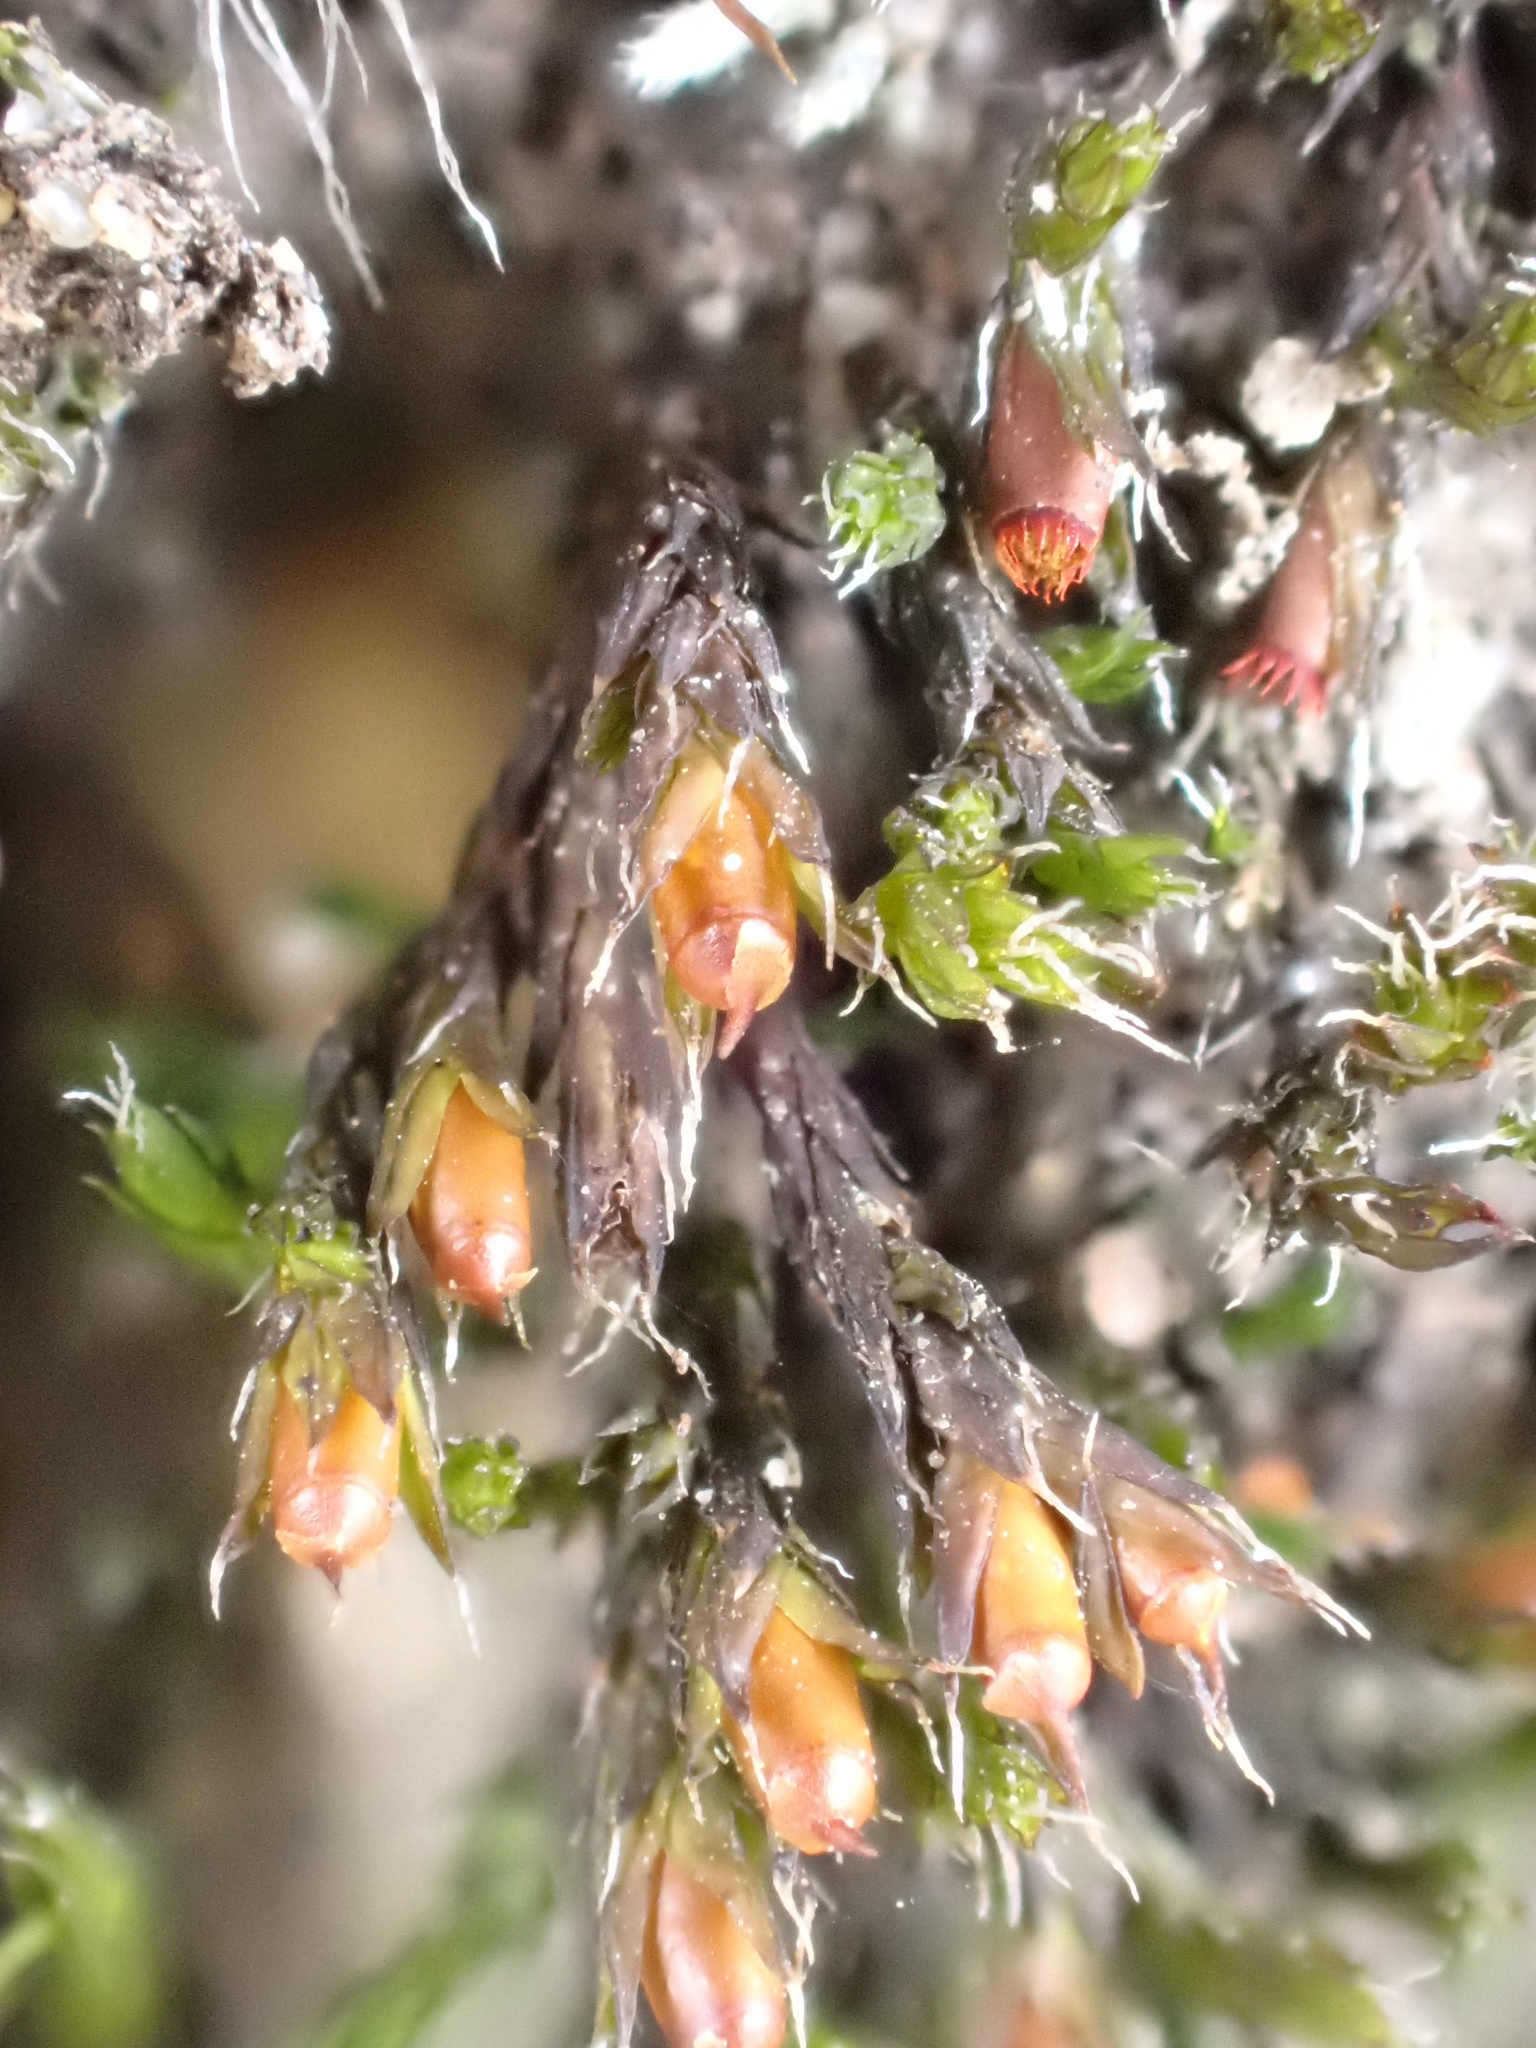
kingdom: Plantae
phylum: Bryophyta
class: Bryopsida
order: Grimmiales
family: Grimmiaceae
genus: Schistidium
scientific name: Schistidium apocarpum
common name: Radiate bloom moss
